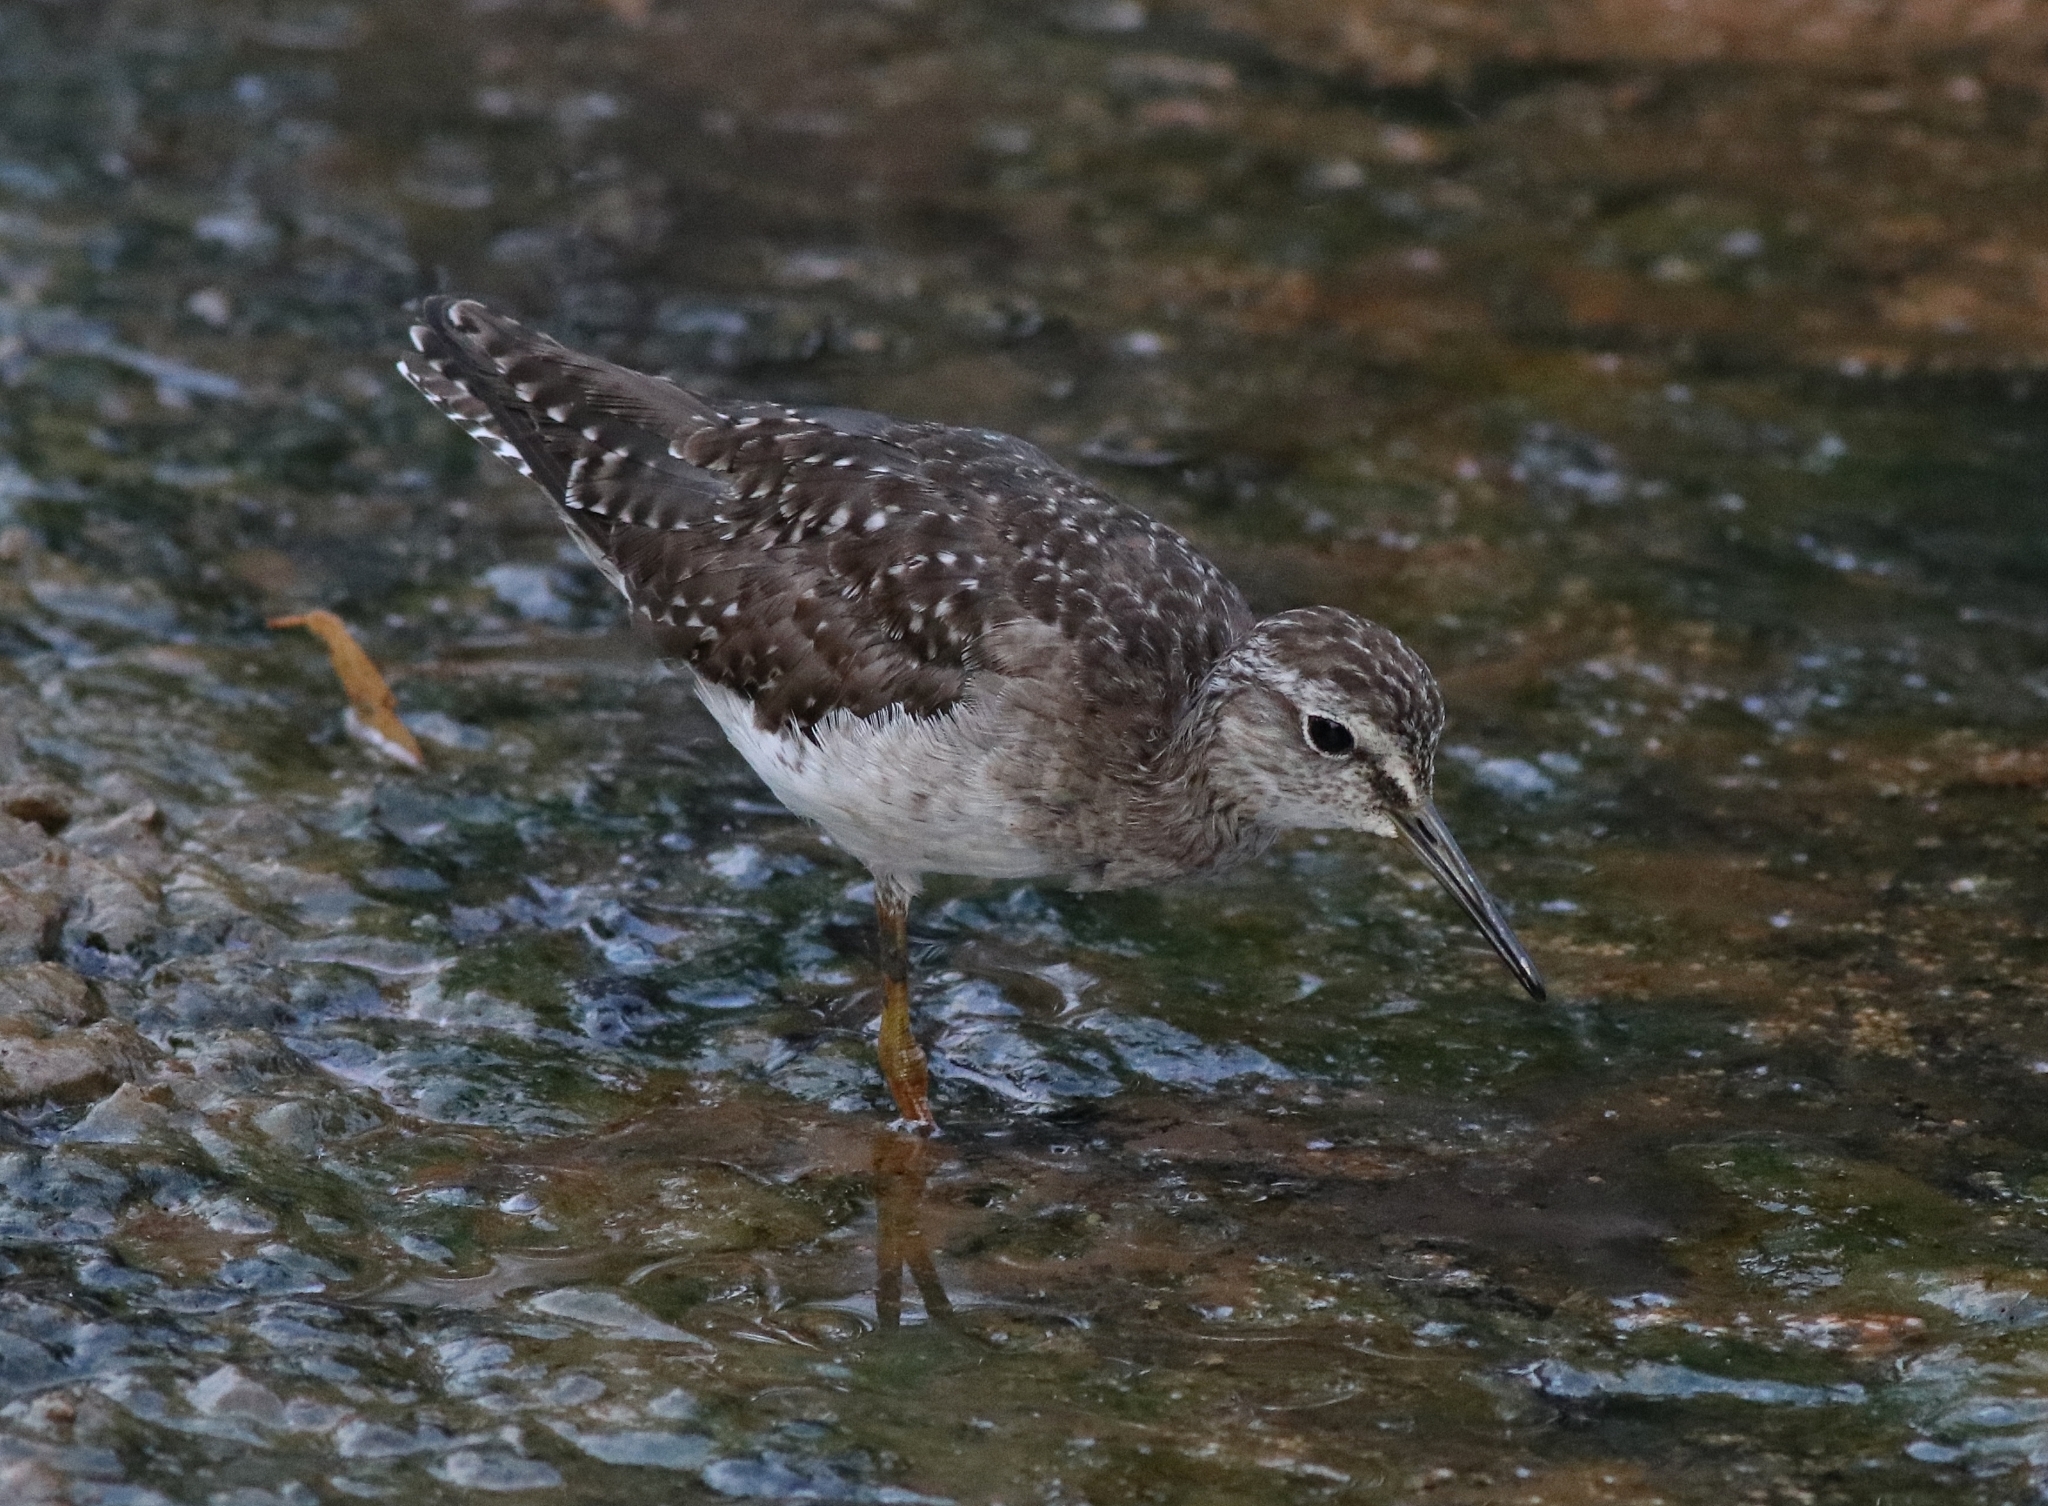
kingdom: Animalia
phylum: Chordata
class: Aves
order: Charadriiformes
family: Scolopacidae
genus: Tringa
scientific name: Tringa glareola
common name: Wood sandpiper
